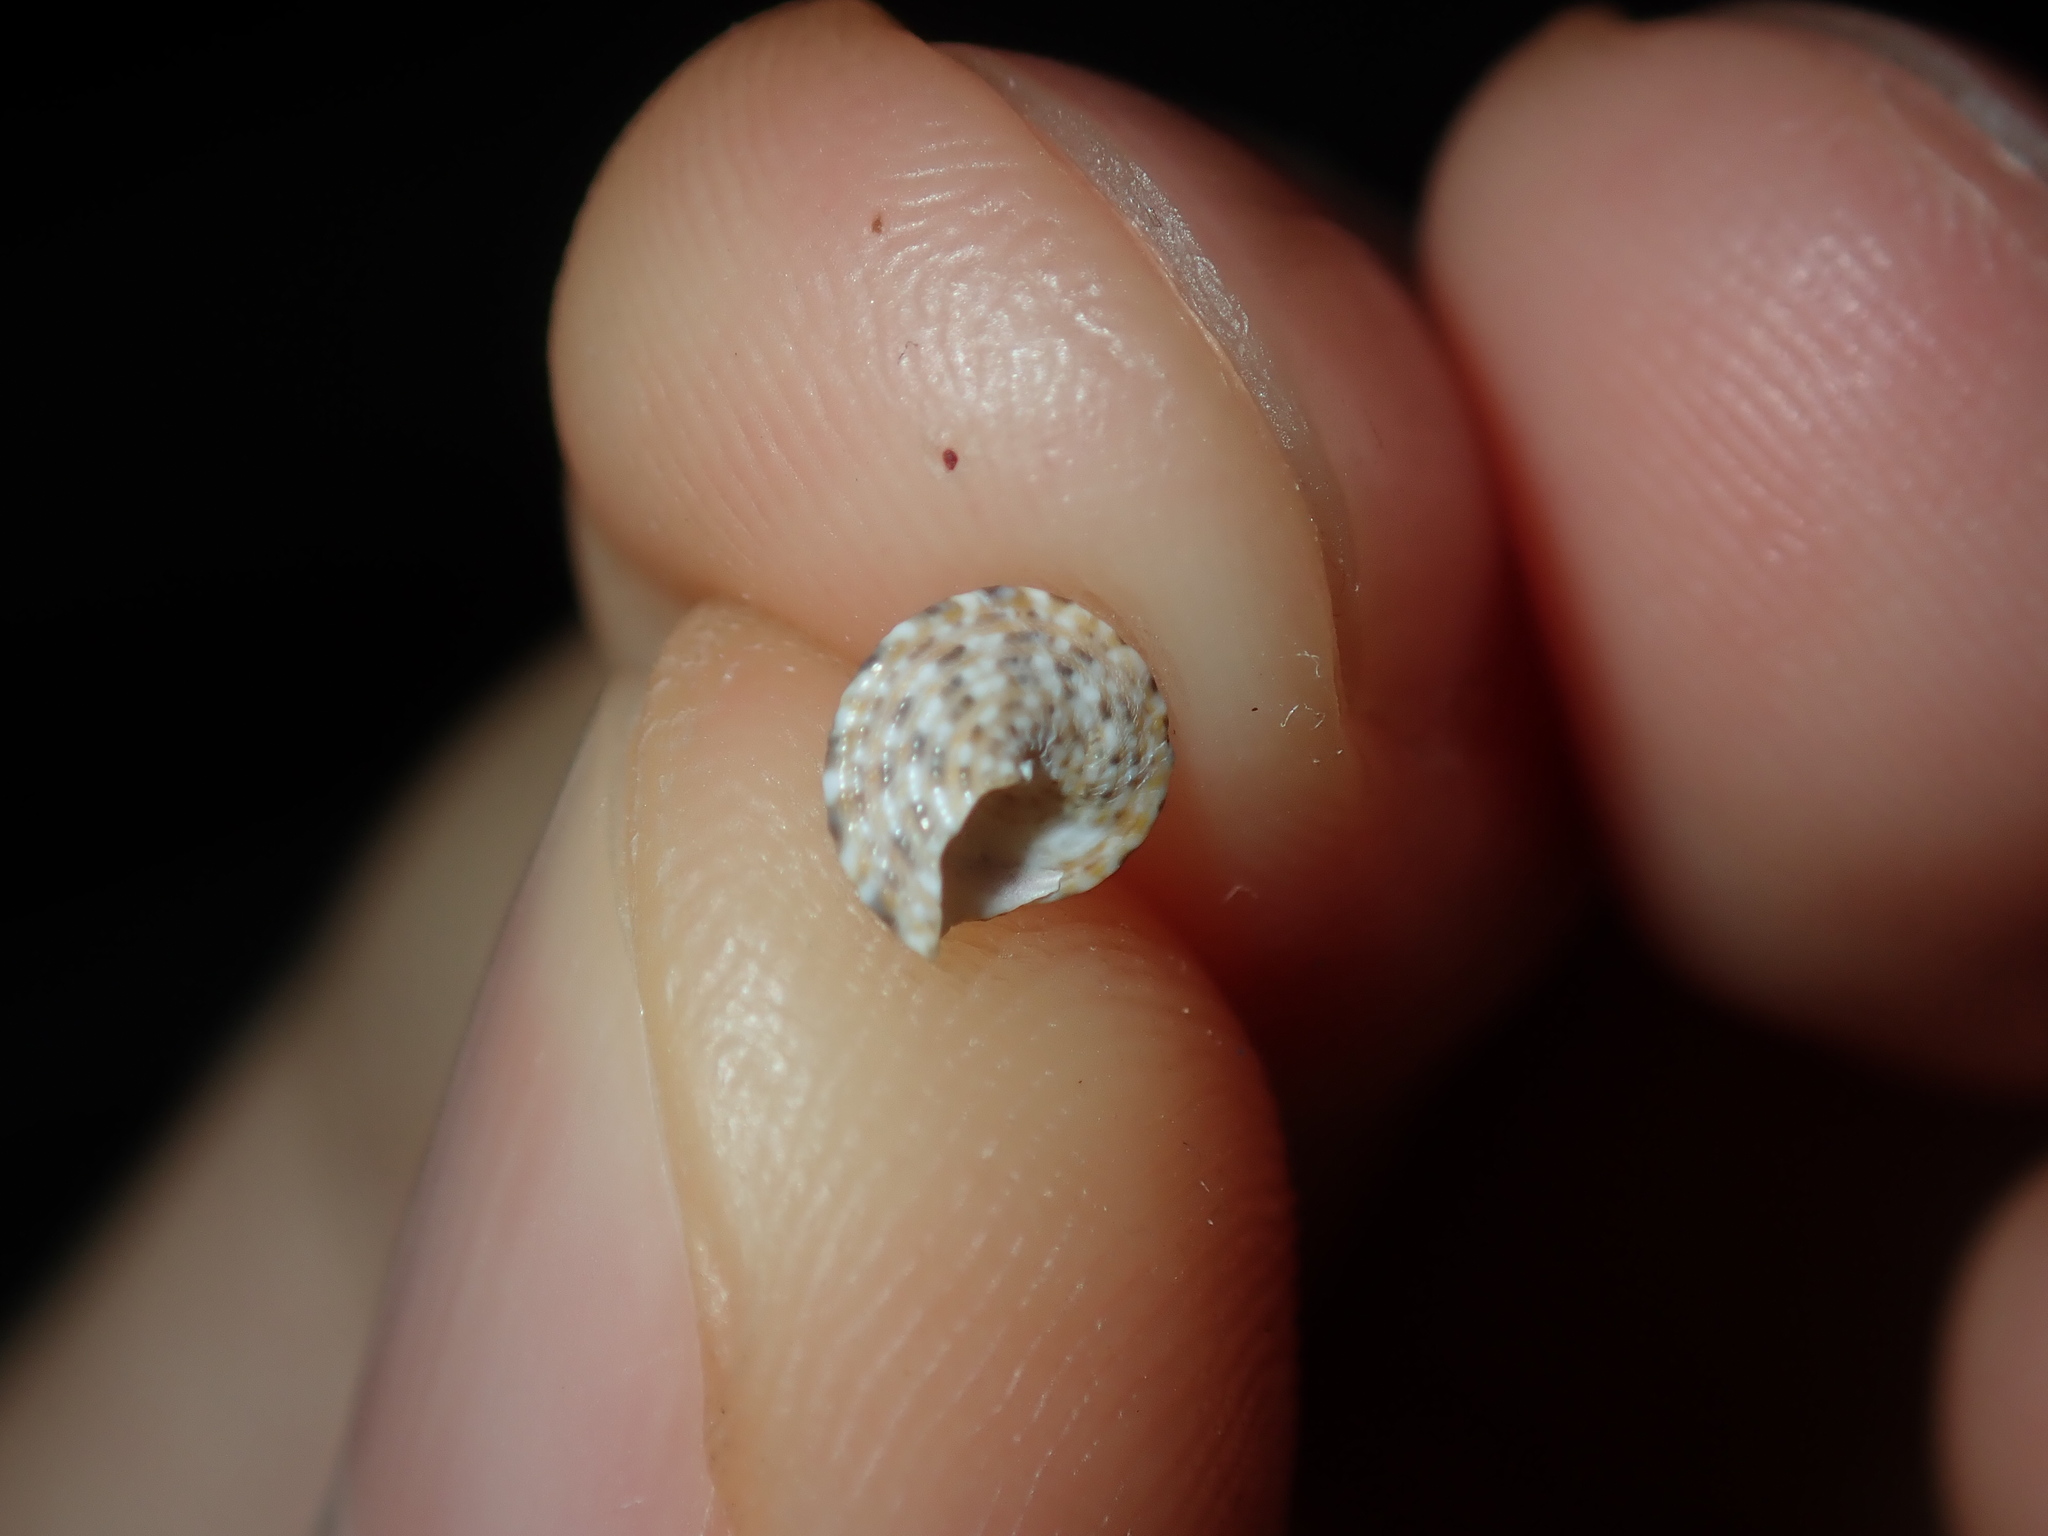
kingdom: Animalia
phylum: Mollusca
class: Gastropoda
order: Trochida
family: Trochidae
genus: Calthalotia
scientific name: Calthalotia fragum
